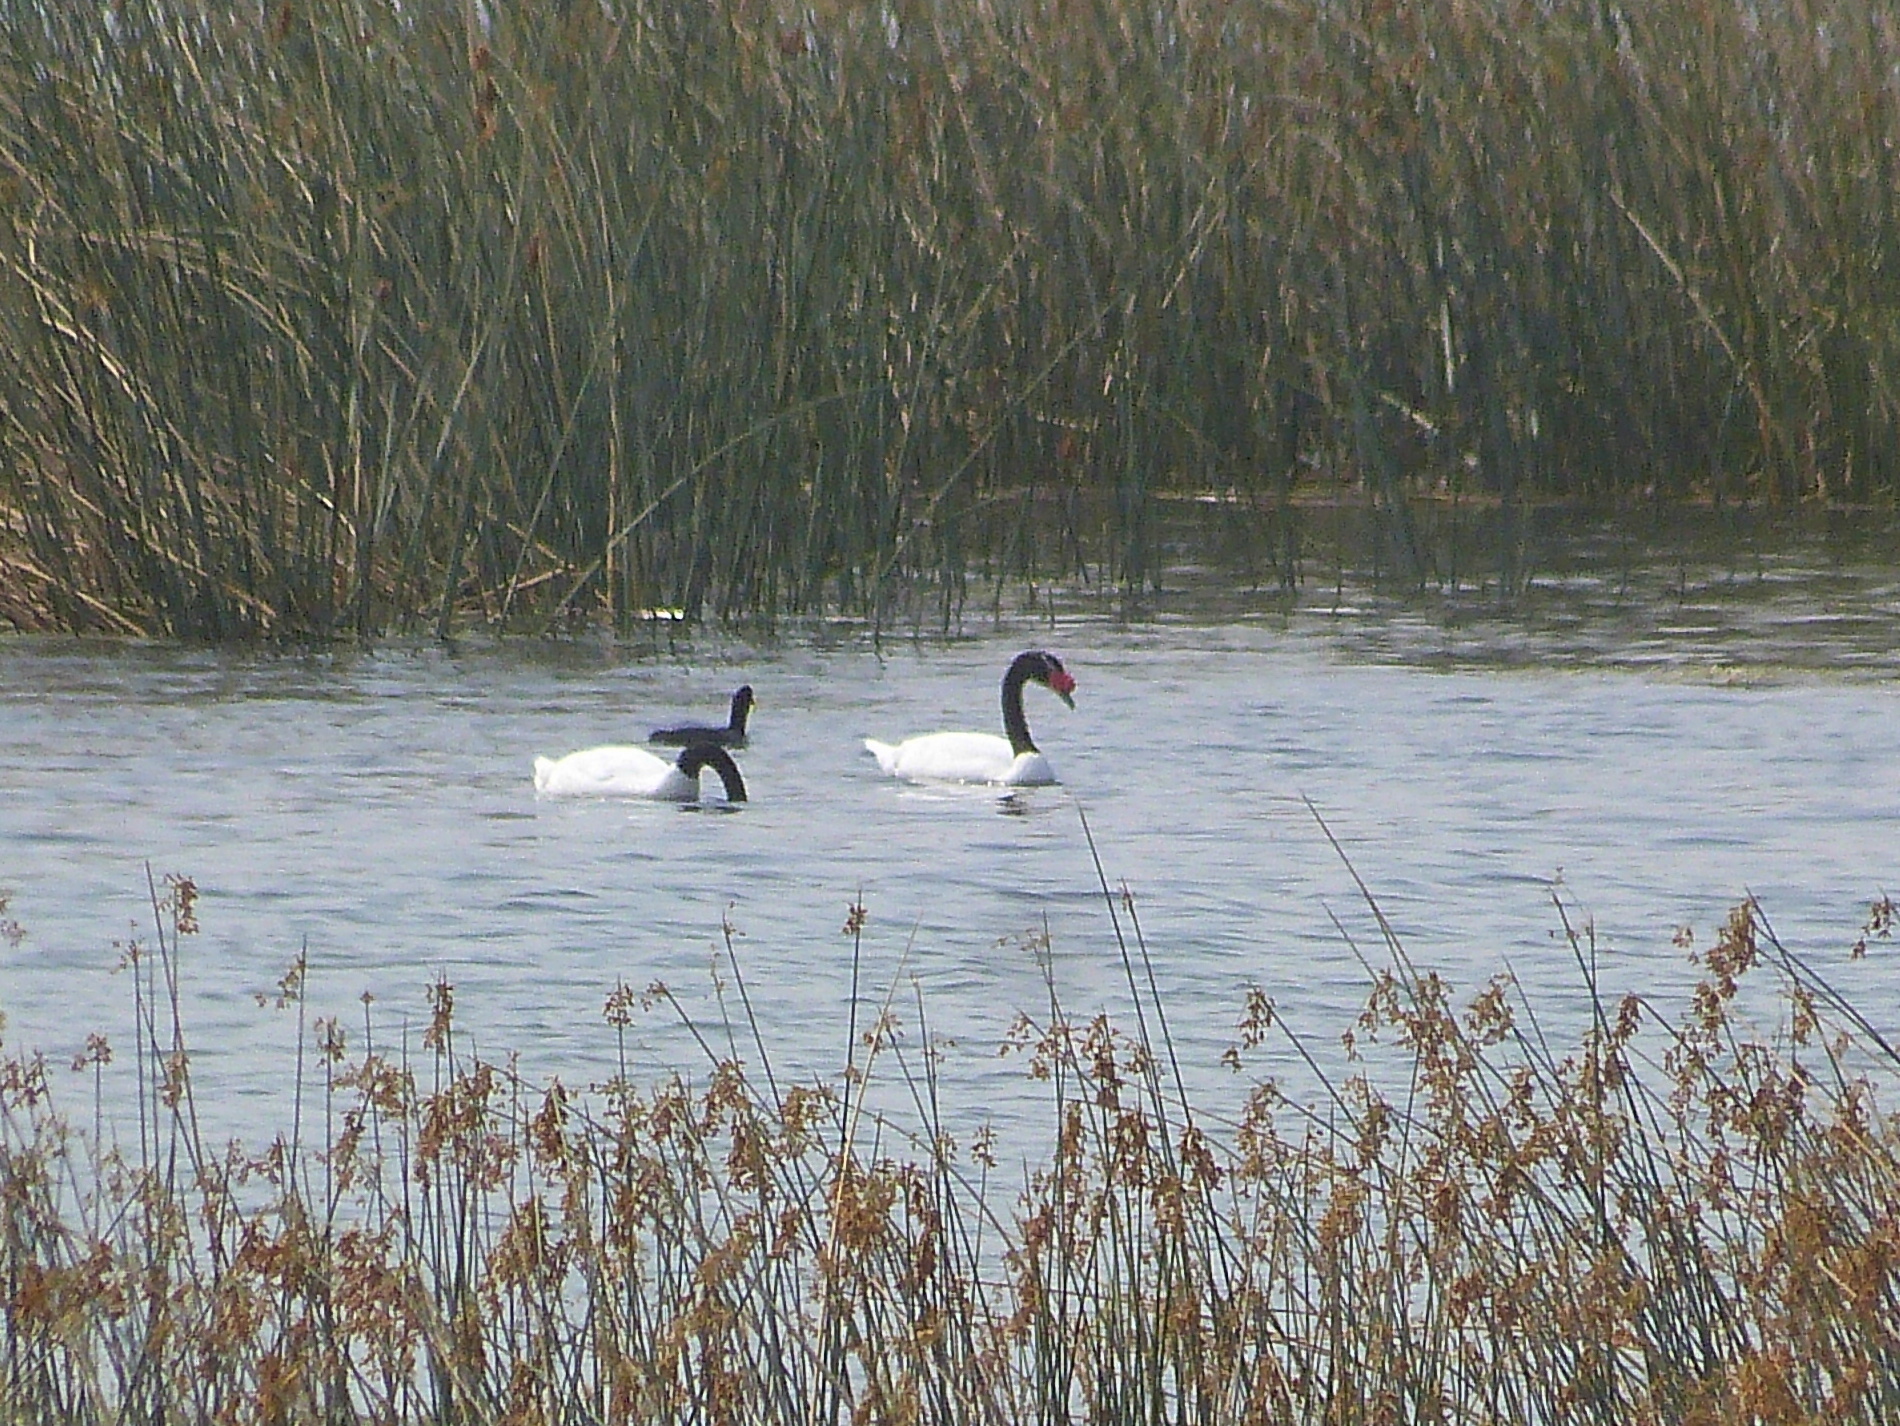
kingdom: Animalia
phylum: Chordata
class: Aves
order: Anseriformes
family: Anatidae
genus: Cygnus
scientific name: Cygnus melancoryphus
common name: Black-necked swan
